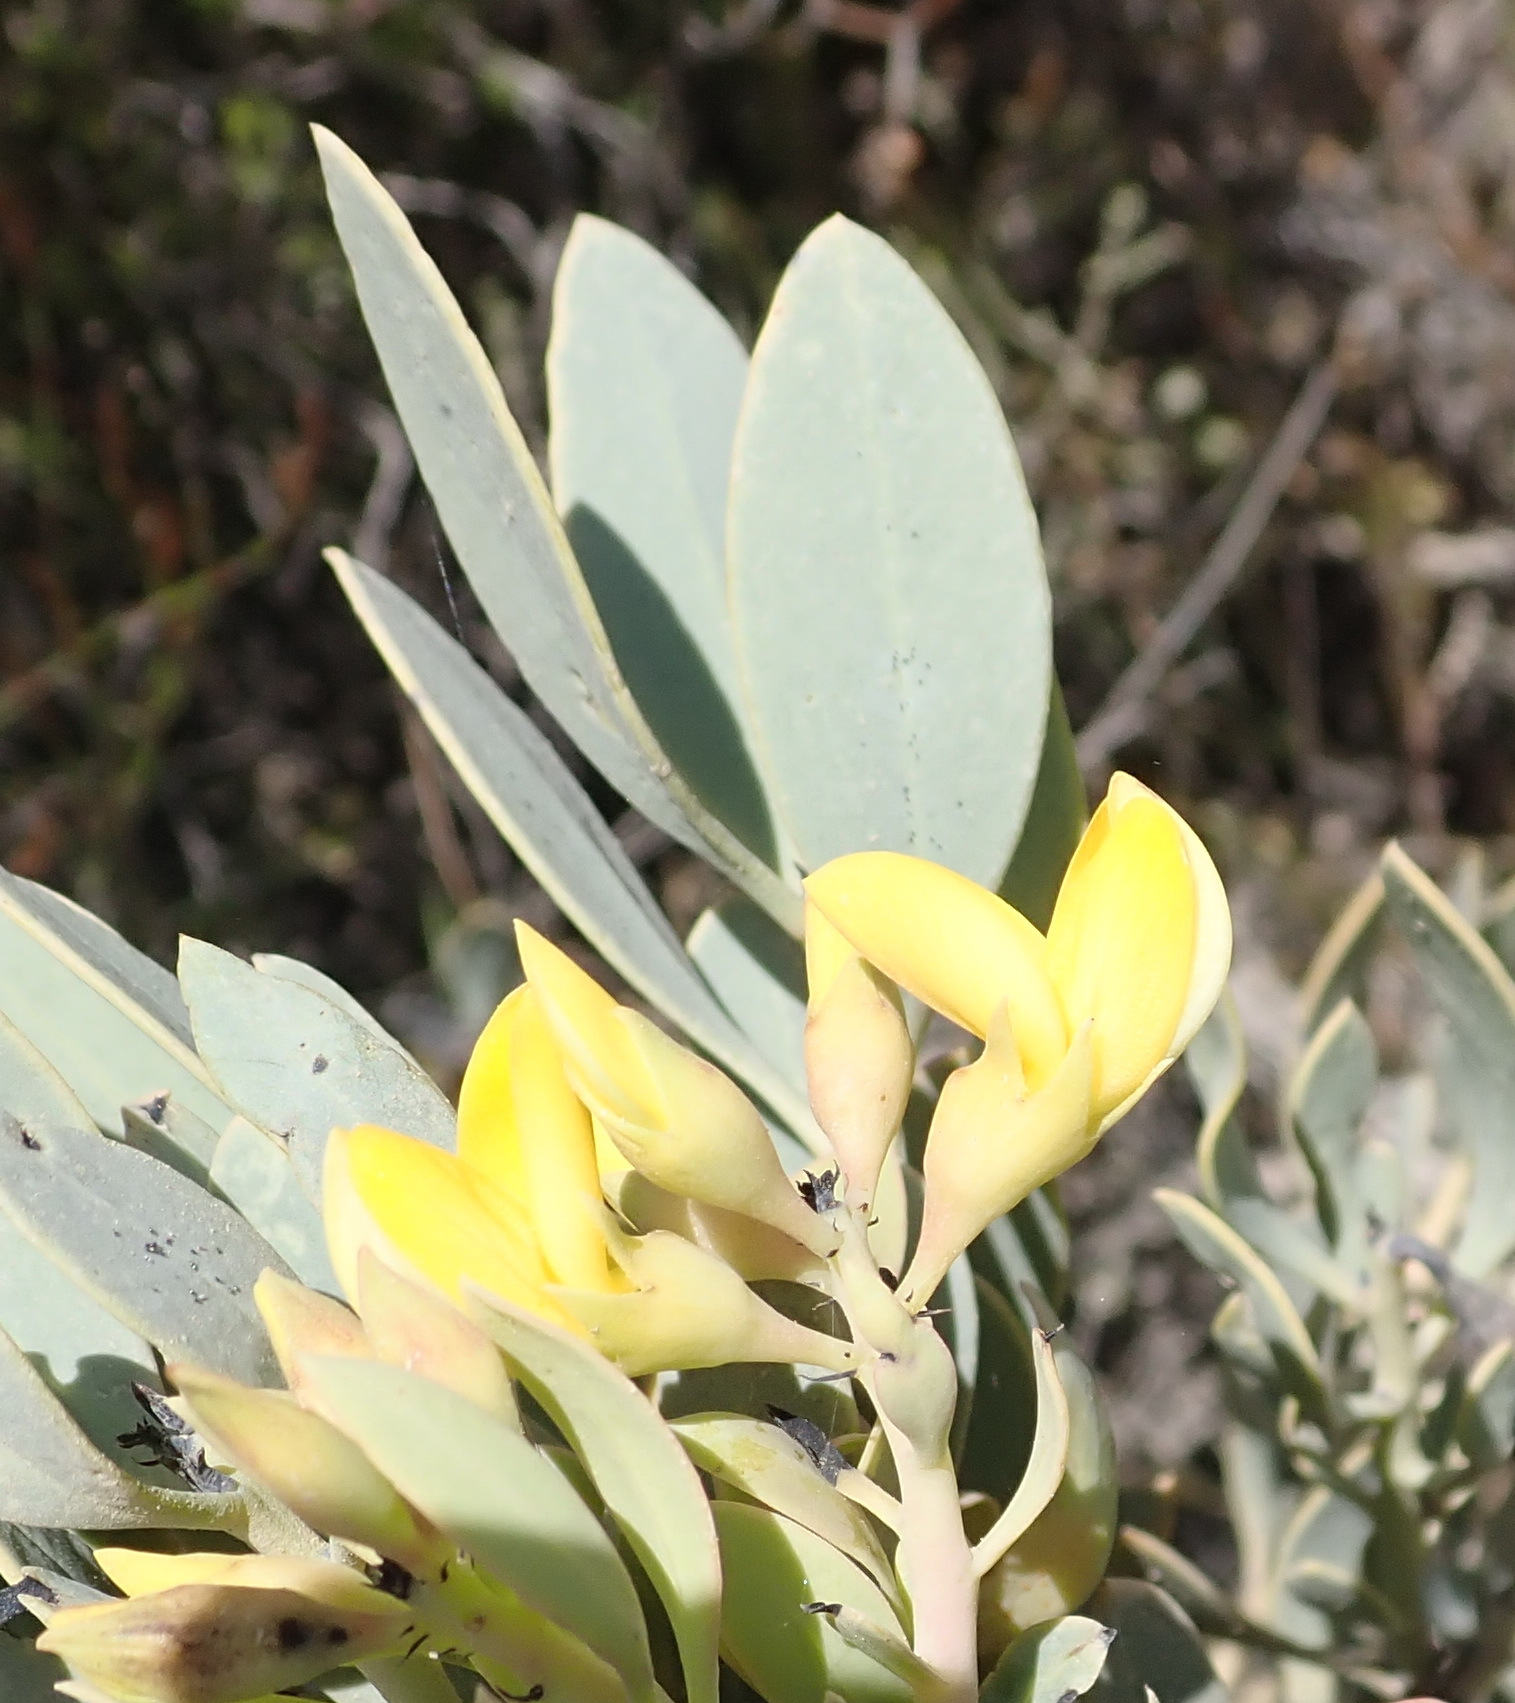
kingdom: Plantae
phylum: Tracheophyta
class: Magnoliopsida
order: Fabales
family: Fabaceae
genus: Rafnia
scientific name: Rafnia racemosa
